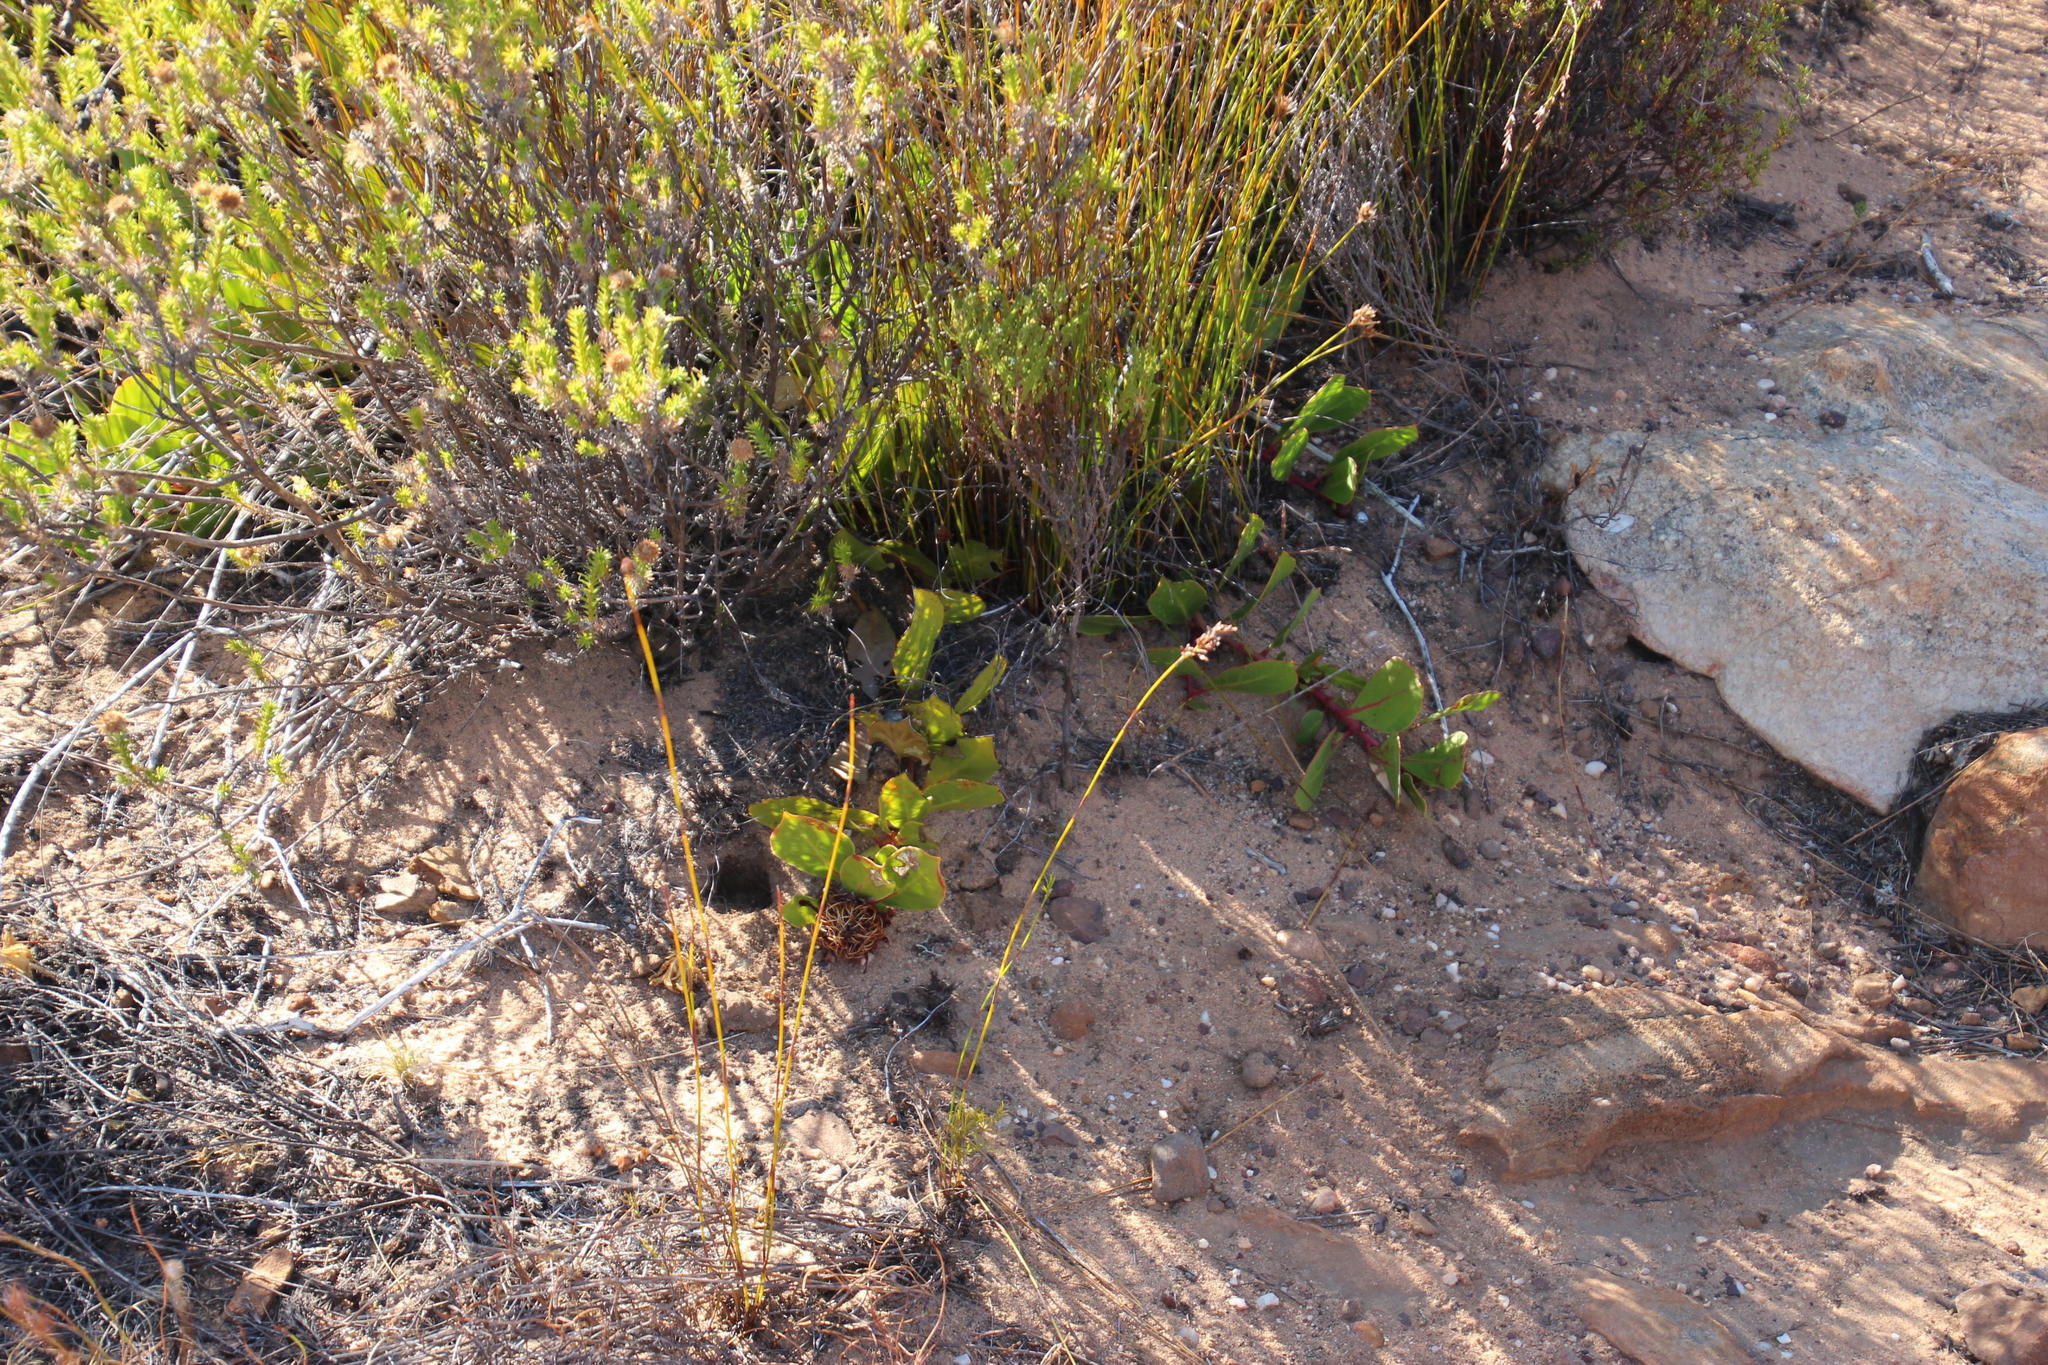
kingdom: Plantae
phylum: Tracheophyta
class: Magnoliopsida
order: Proteales
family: Proteaceae
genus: Protea
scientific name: Protea acaulos
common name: Common ground sugarbush
